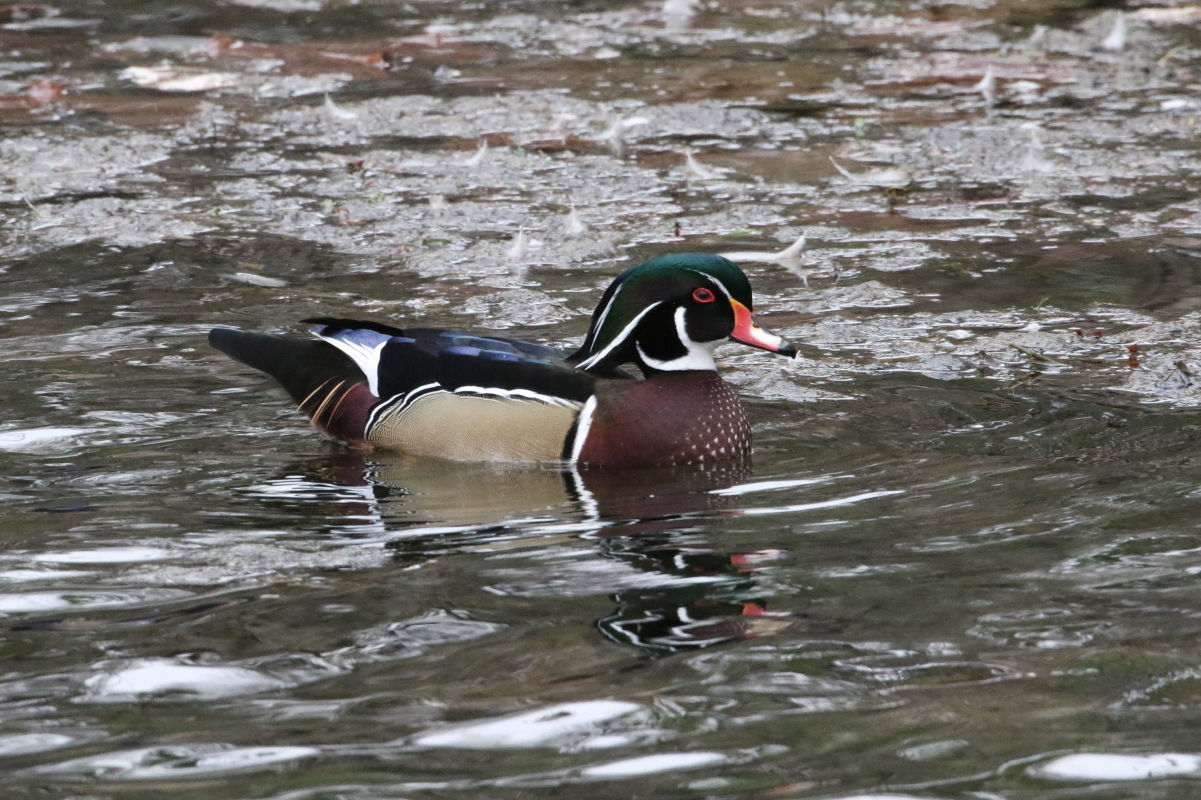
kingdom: Animalia
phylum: Chordata
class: Aves
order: Anseriformes
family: Anatidae
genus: Aix
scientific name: Aix sponsa
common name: Wood duck
